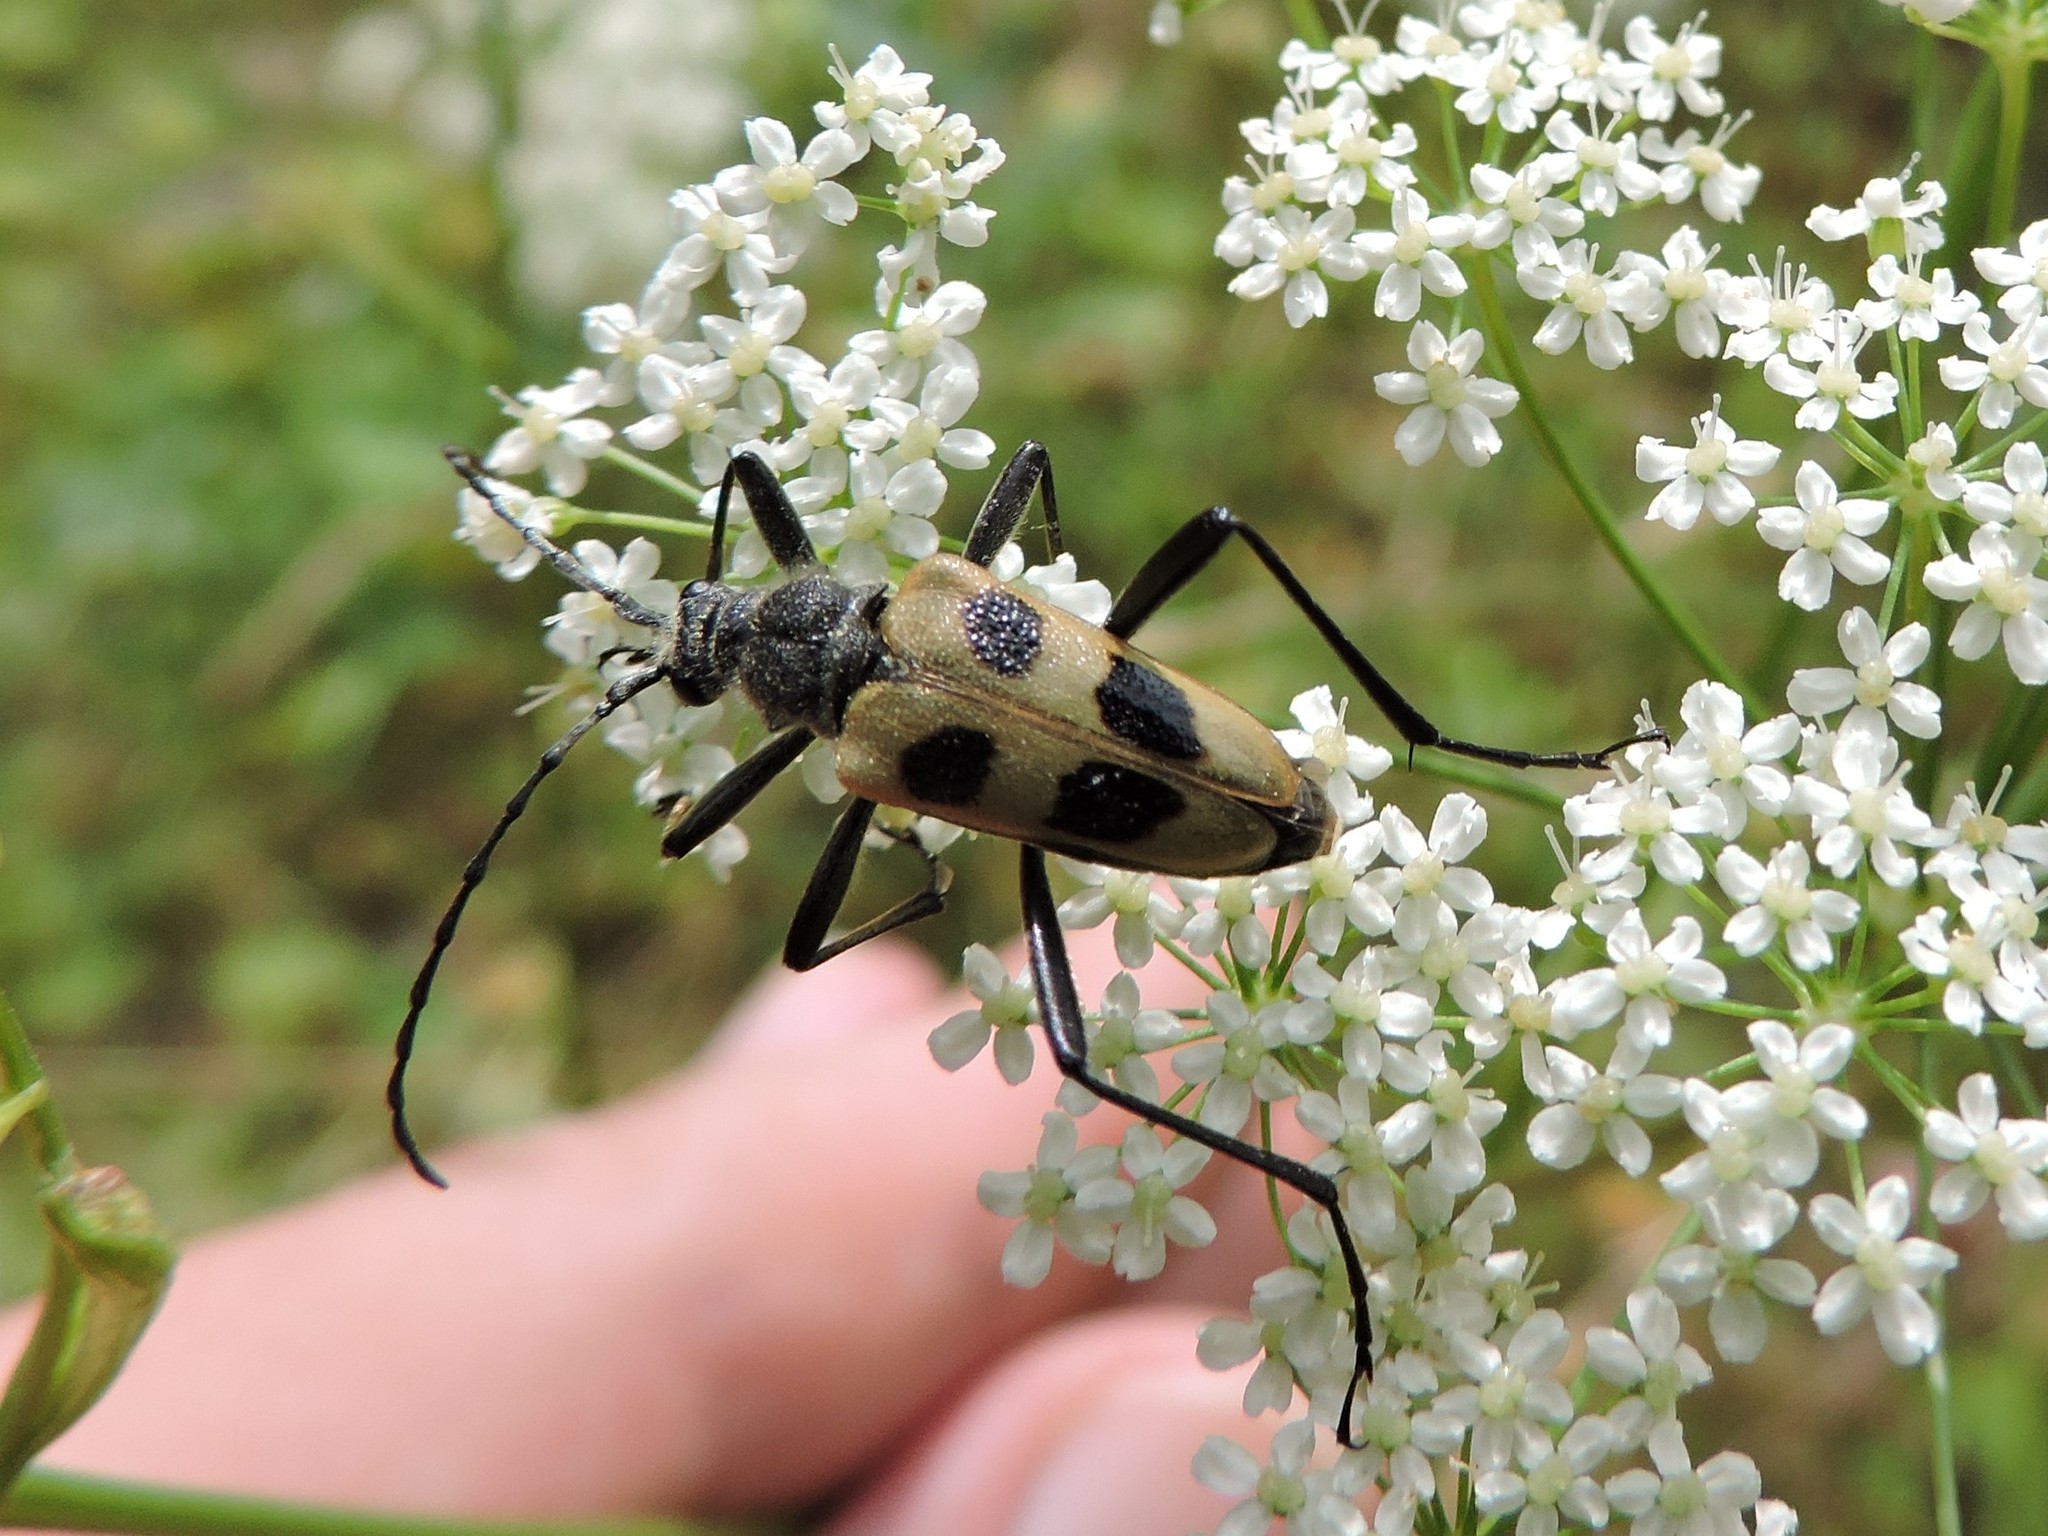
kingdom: Animalia
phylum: Arthropoda
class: Insecta
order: Coleoptera
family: Cerambycidae
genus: Pachyta
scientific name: Pachyta quadrimaculata
